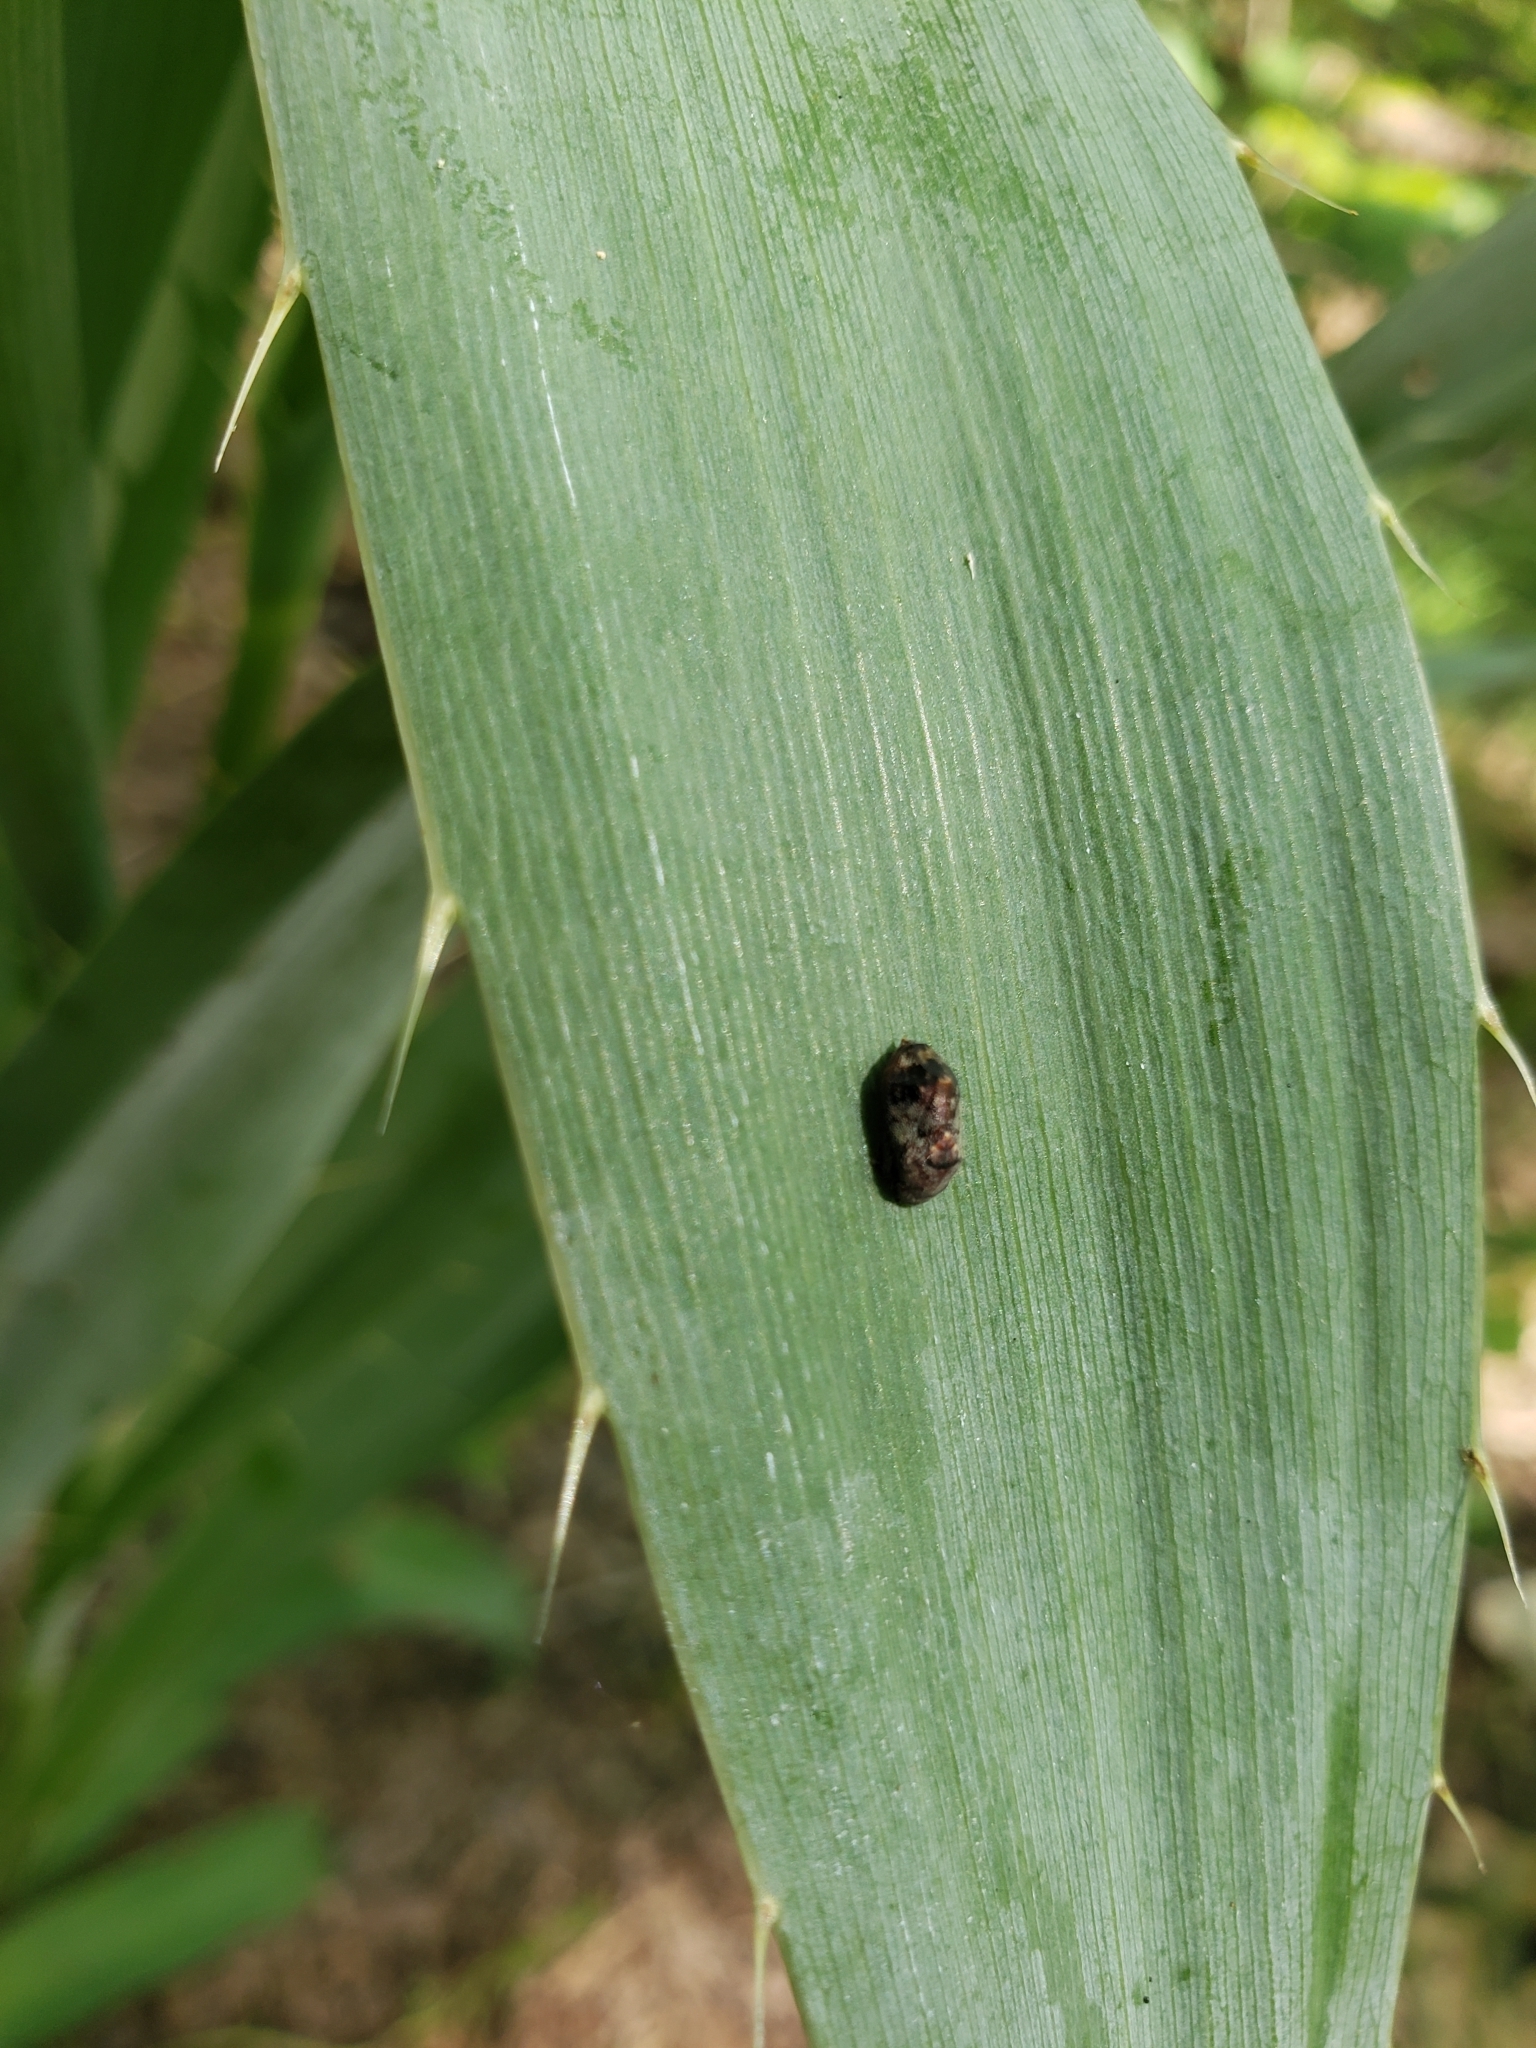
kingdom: Animalia
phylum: Arthropoda
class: Insecta
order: Lepidoptera
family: Lycaenidae
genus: Feniseca
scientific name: Feniseca tarquinius
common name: Harvester
